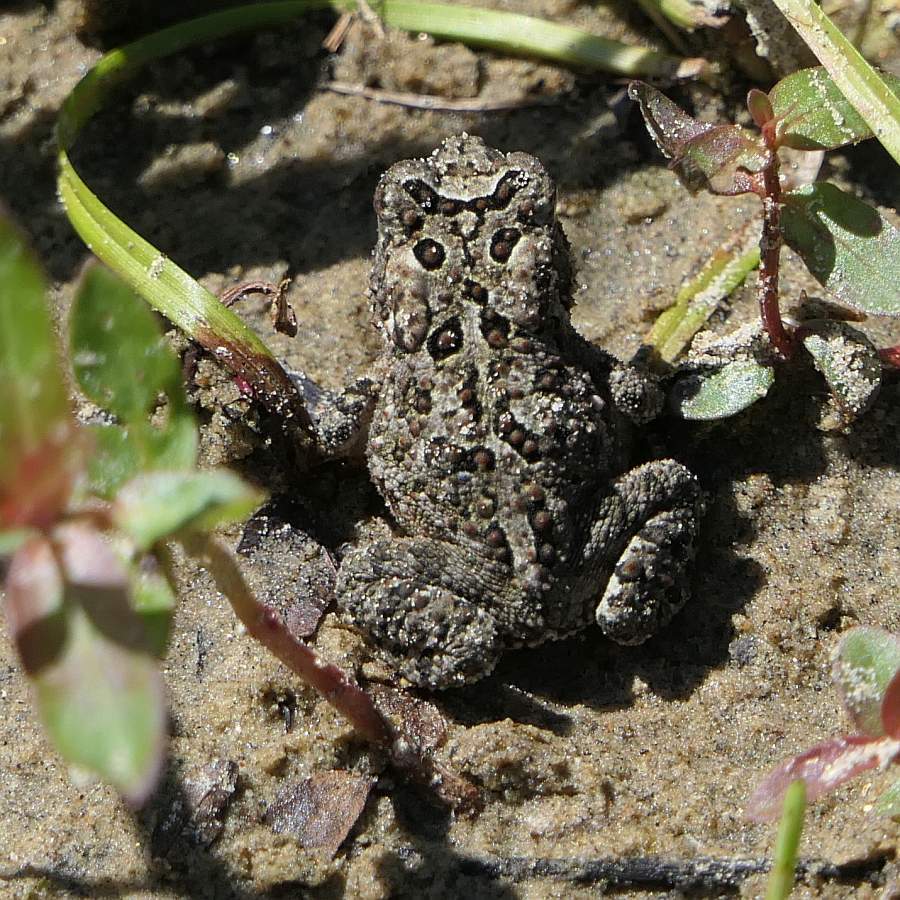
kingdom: Animalia
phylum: Chordata
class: Amphibia
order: Anura
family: Bufonidae
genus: Anaxyrus
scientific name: Anaxyrus americanus
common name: American toad
